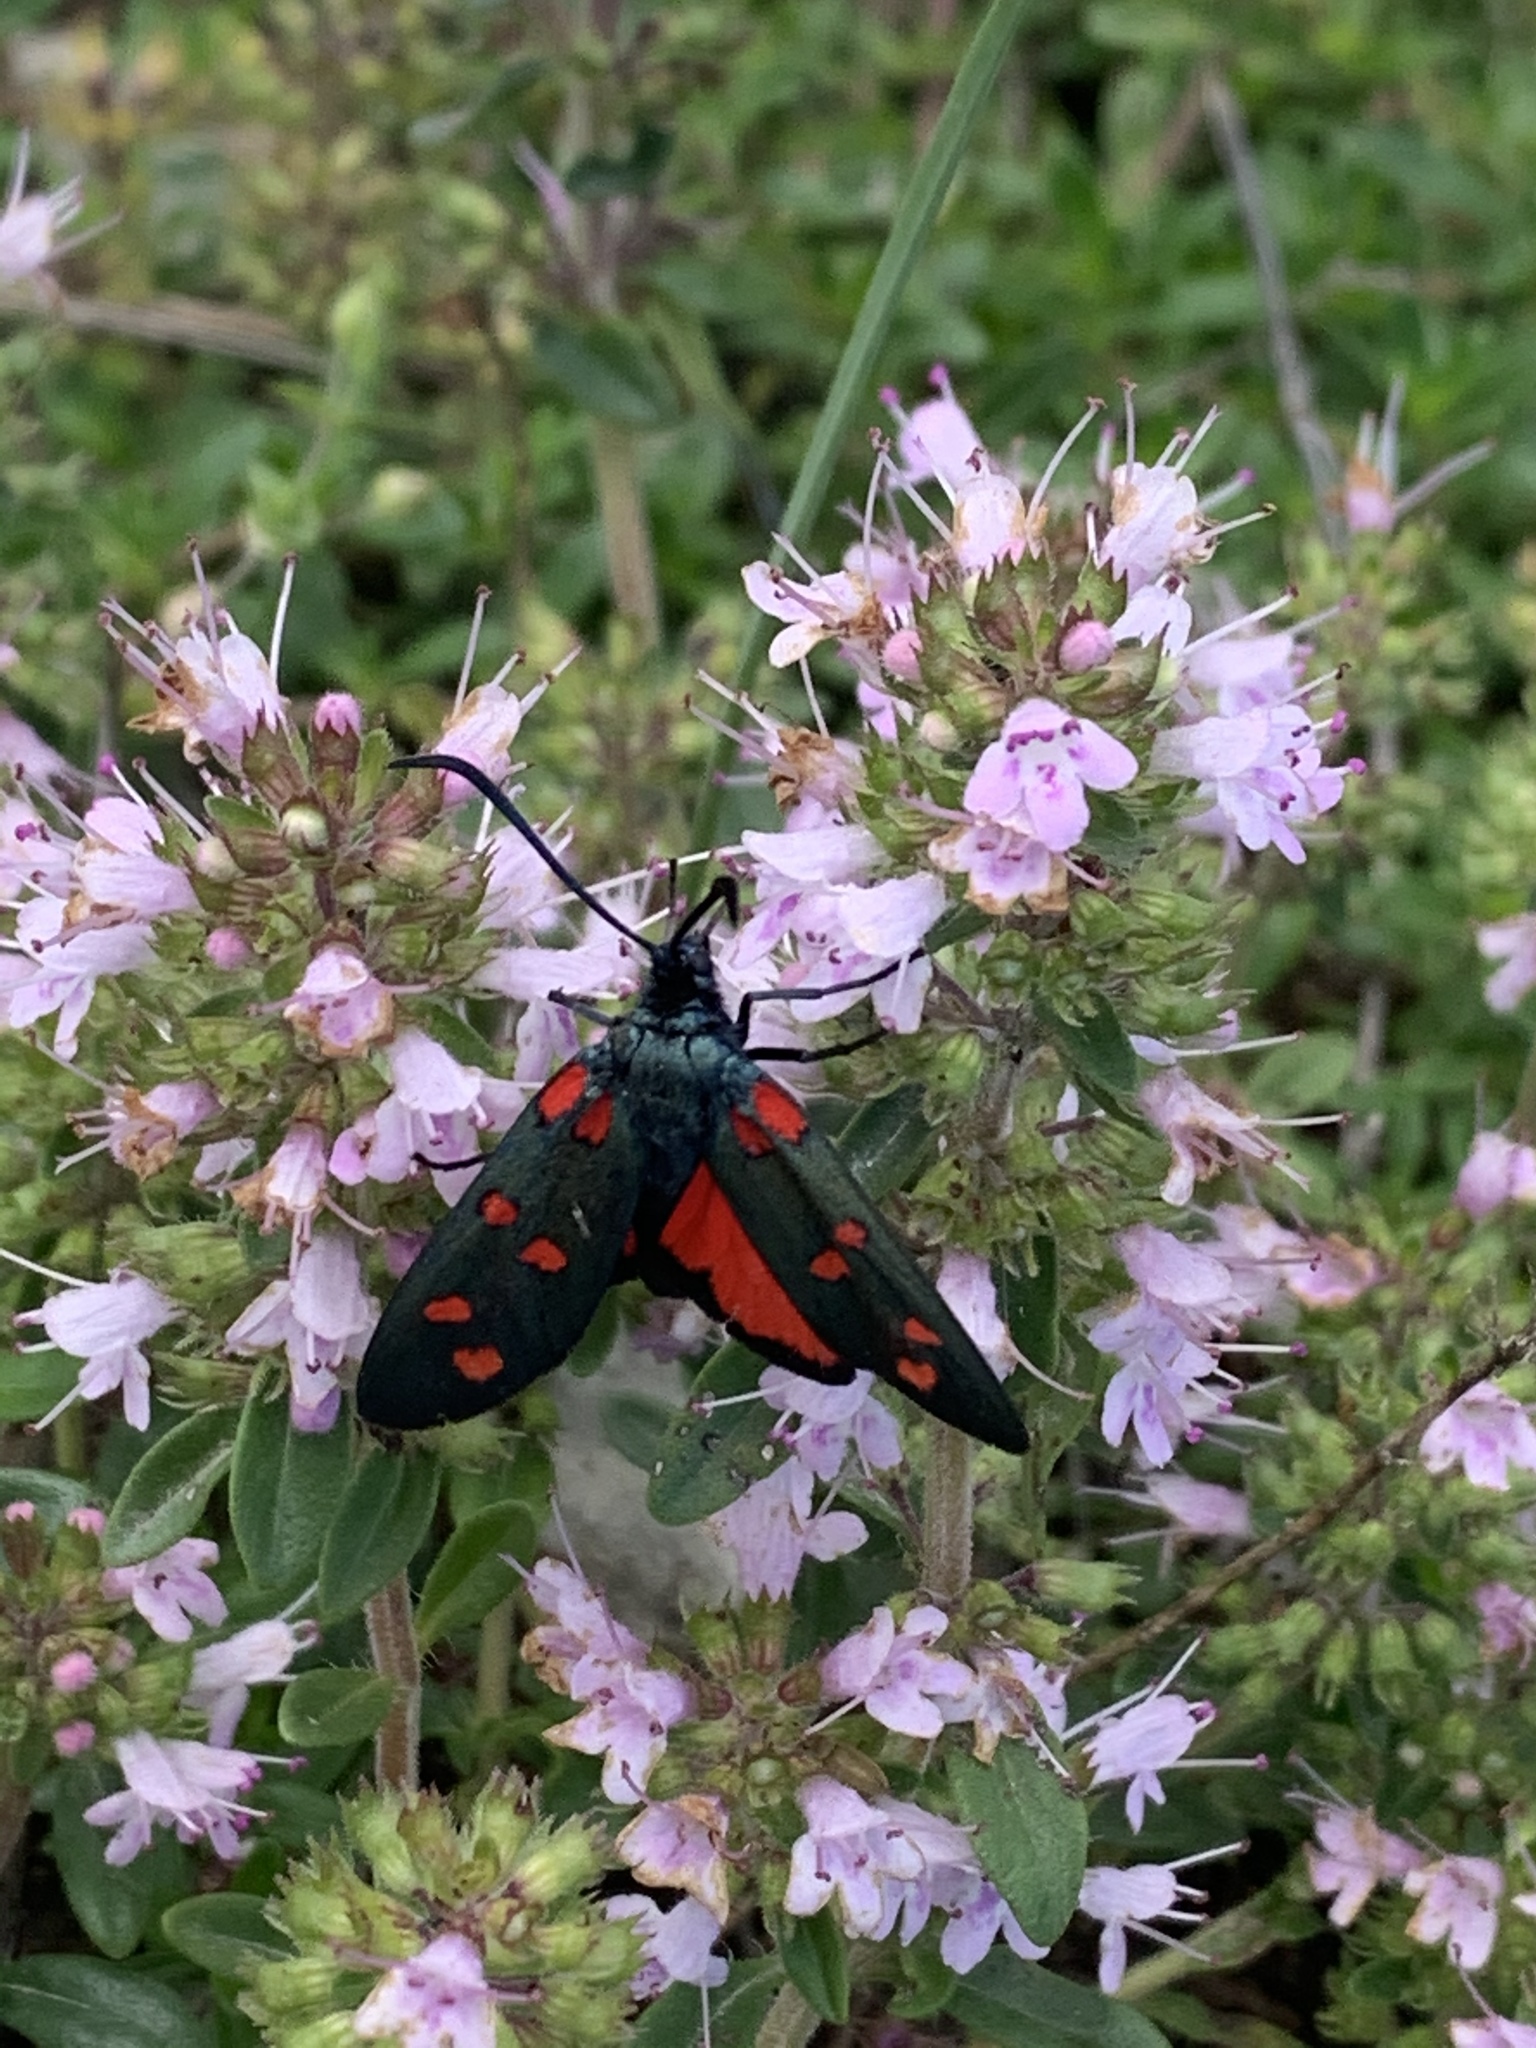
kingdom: Animalia
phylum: Arthropoda
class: Insecta
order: Lepidoptera
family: Zygaenidae
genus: Zygaena
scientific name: Zygaena transalpina
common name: Southern six spot burnet
